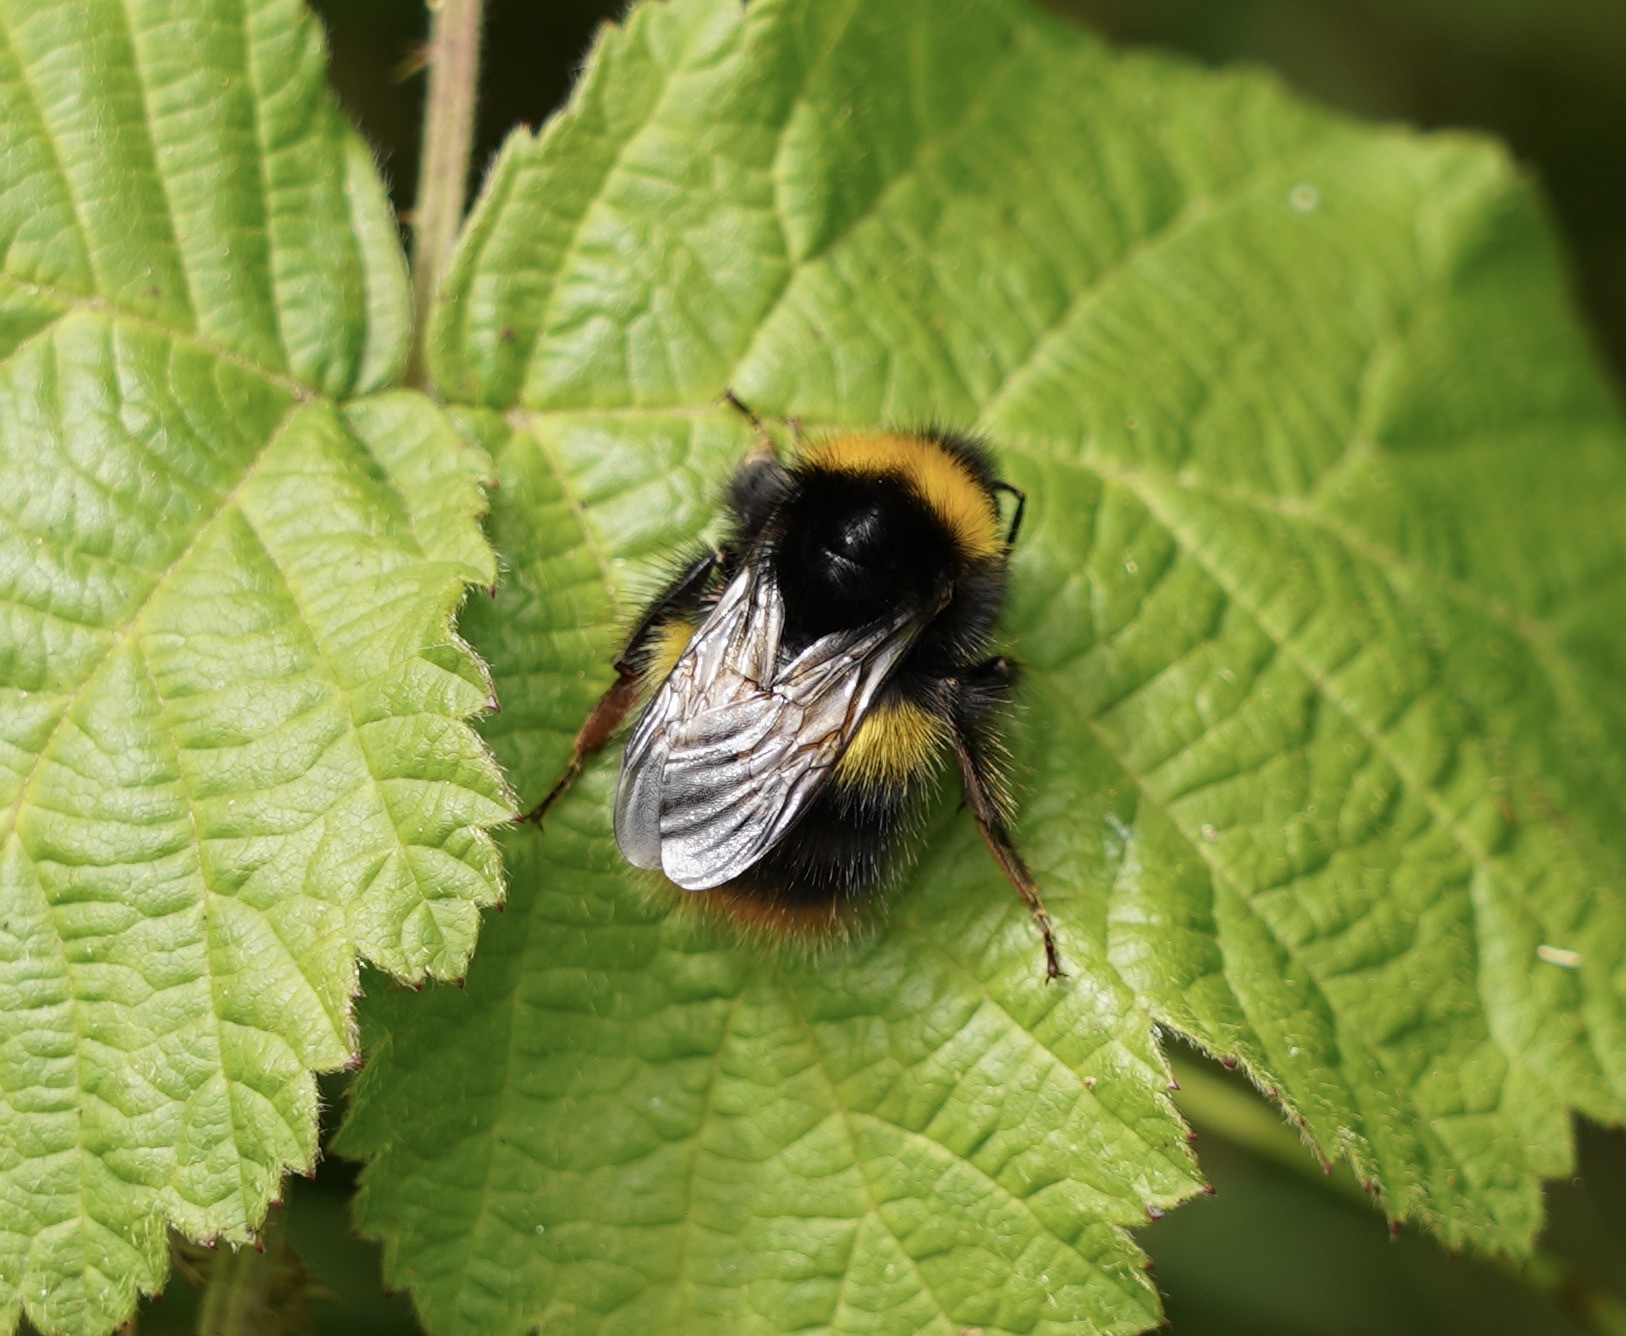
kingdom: Animalia
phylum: Arthropoda
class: Insecta
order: Hymenoptera
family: Apidae
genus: Bombus
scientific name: Bombus pratorum
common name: Early humble-bee
